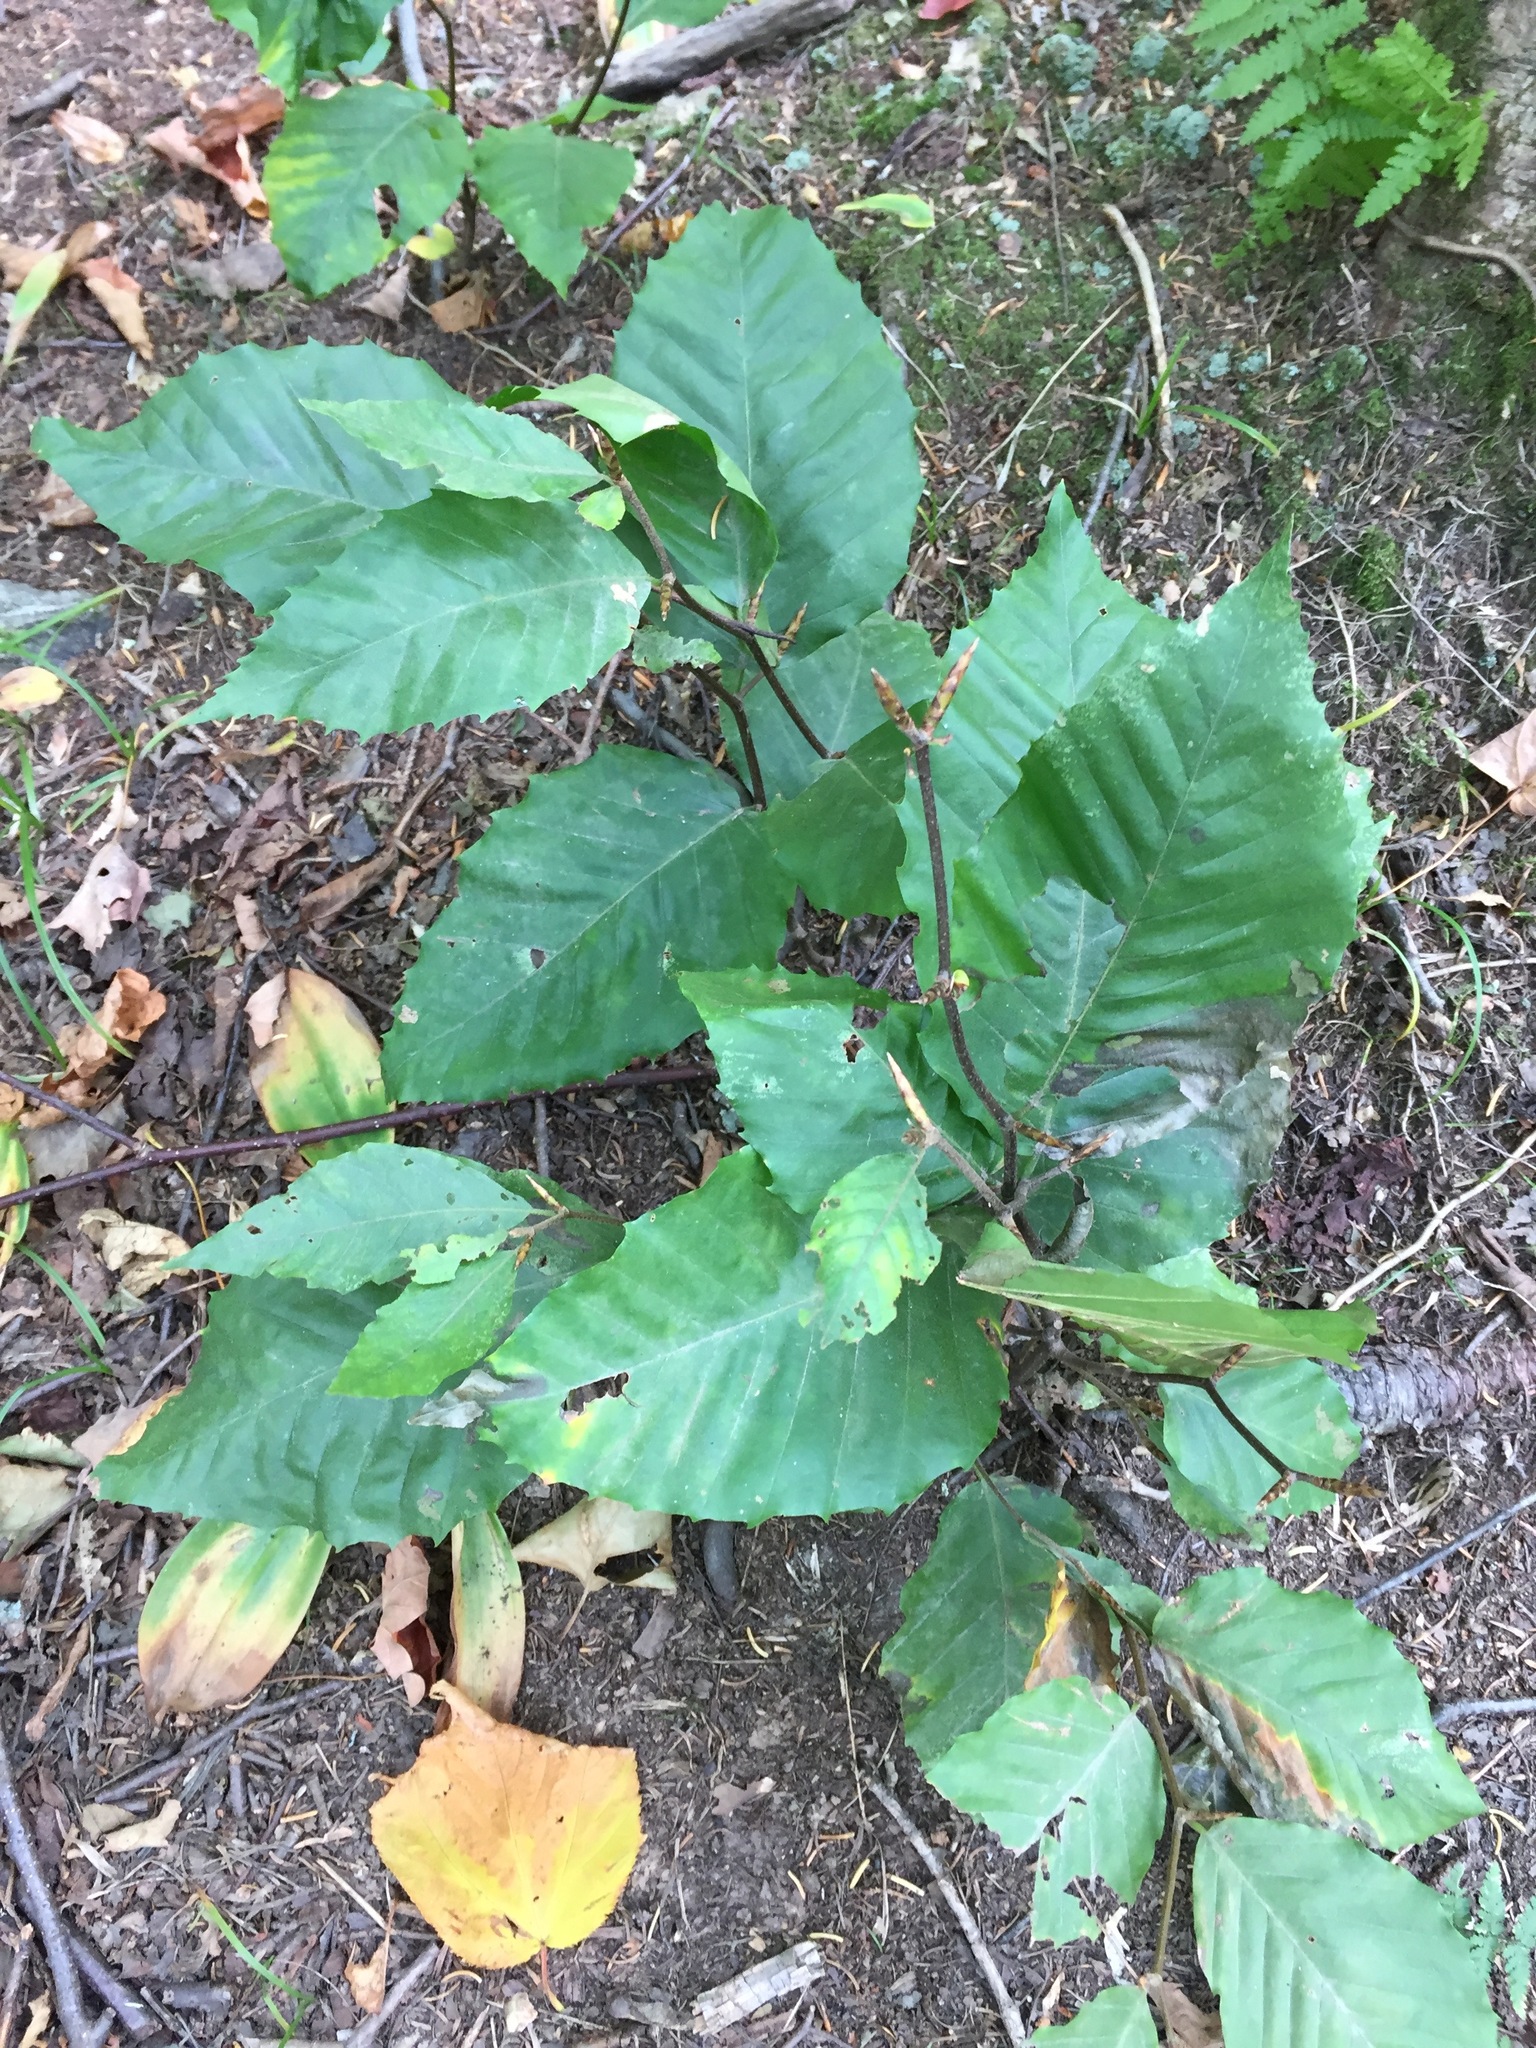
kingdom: Plantae
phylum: Tracheophyta
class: Magnoliopsida
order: Fagales
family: Fagaceae
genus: Fagus
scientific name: Fagus grandifolia
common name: American beech
